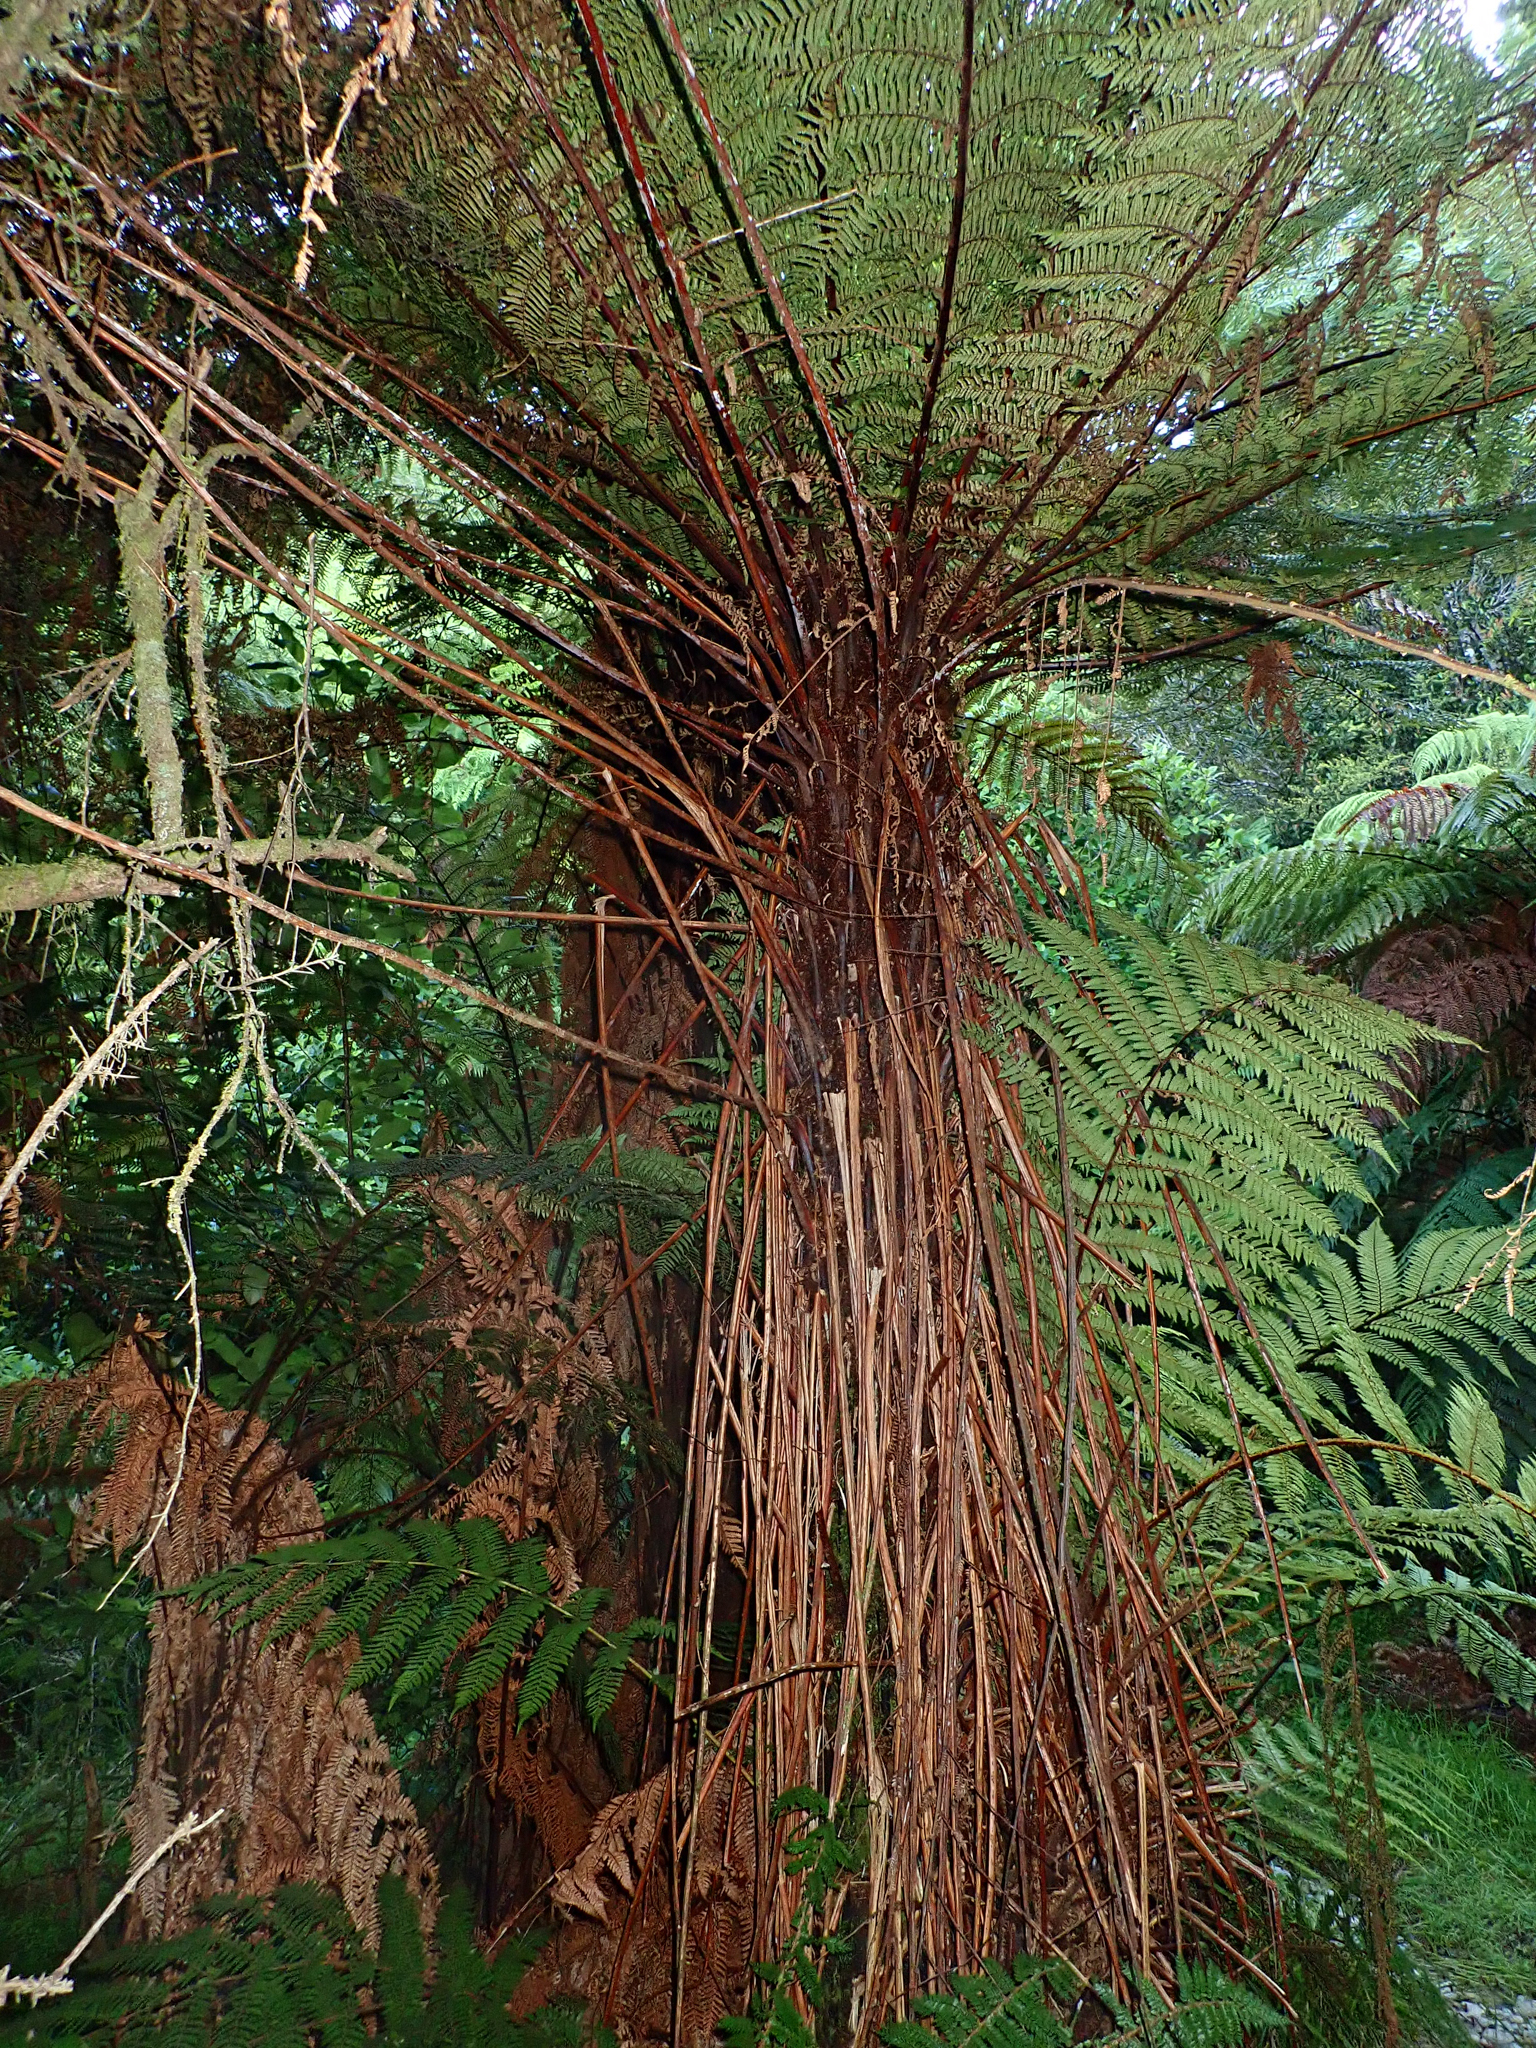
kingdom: Plantae
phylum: Tracheophyta
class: Polypodiopsida
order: Cyatheales
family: Cyatheaceae
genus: Alsophila
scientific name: Alsophila smithii
